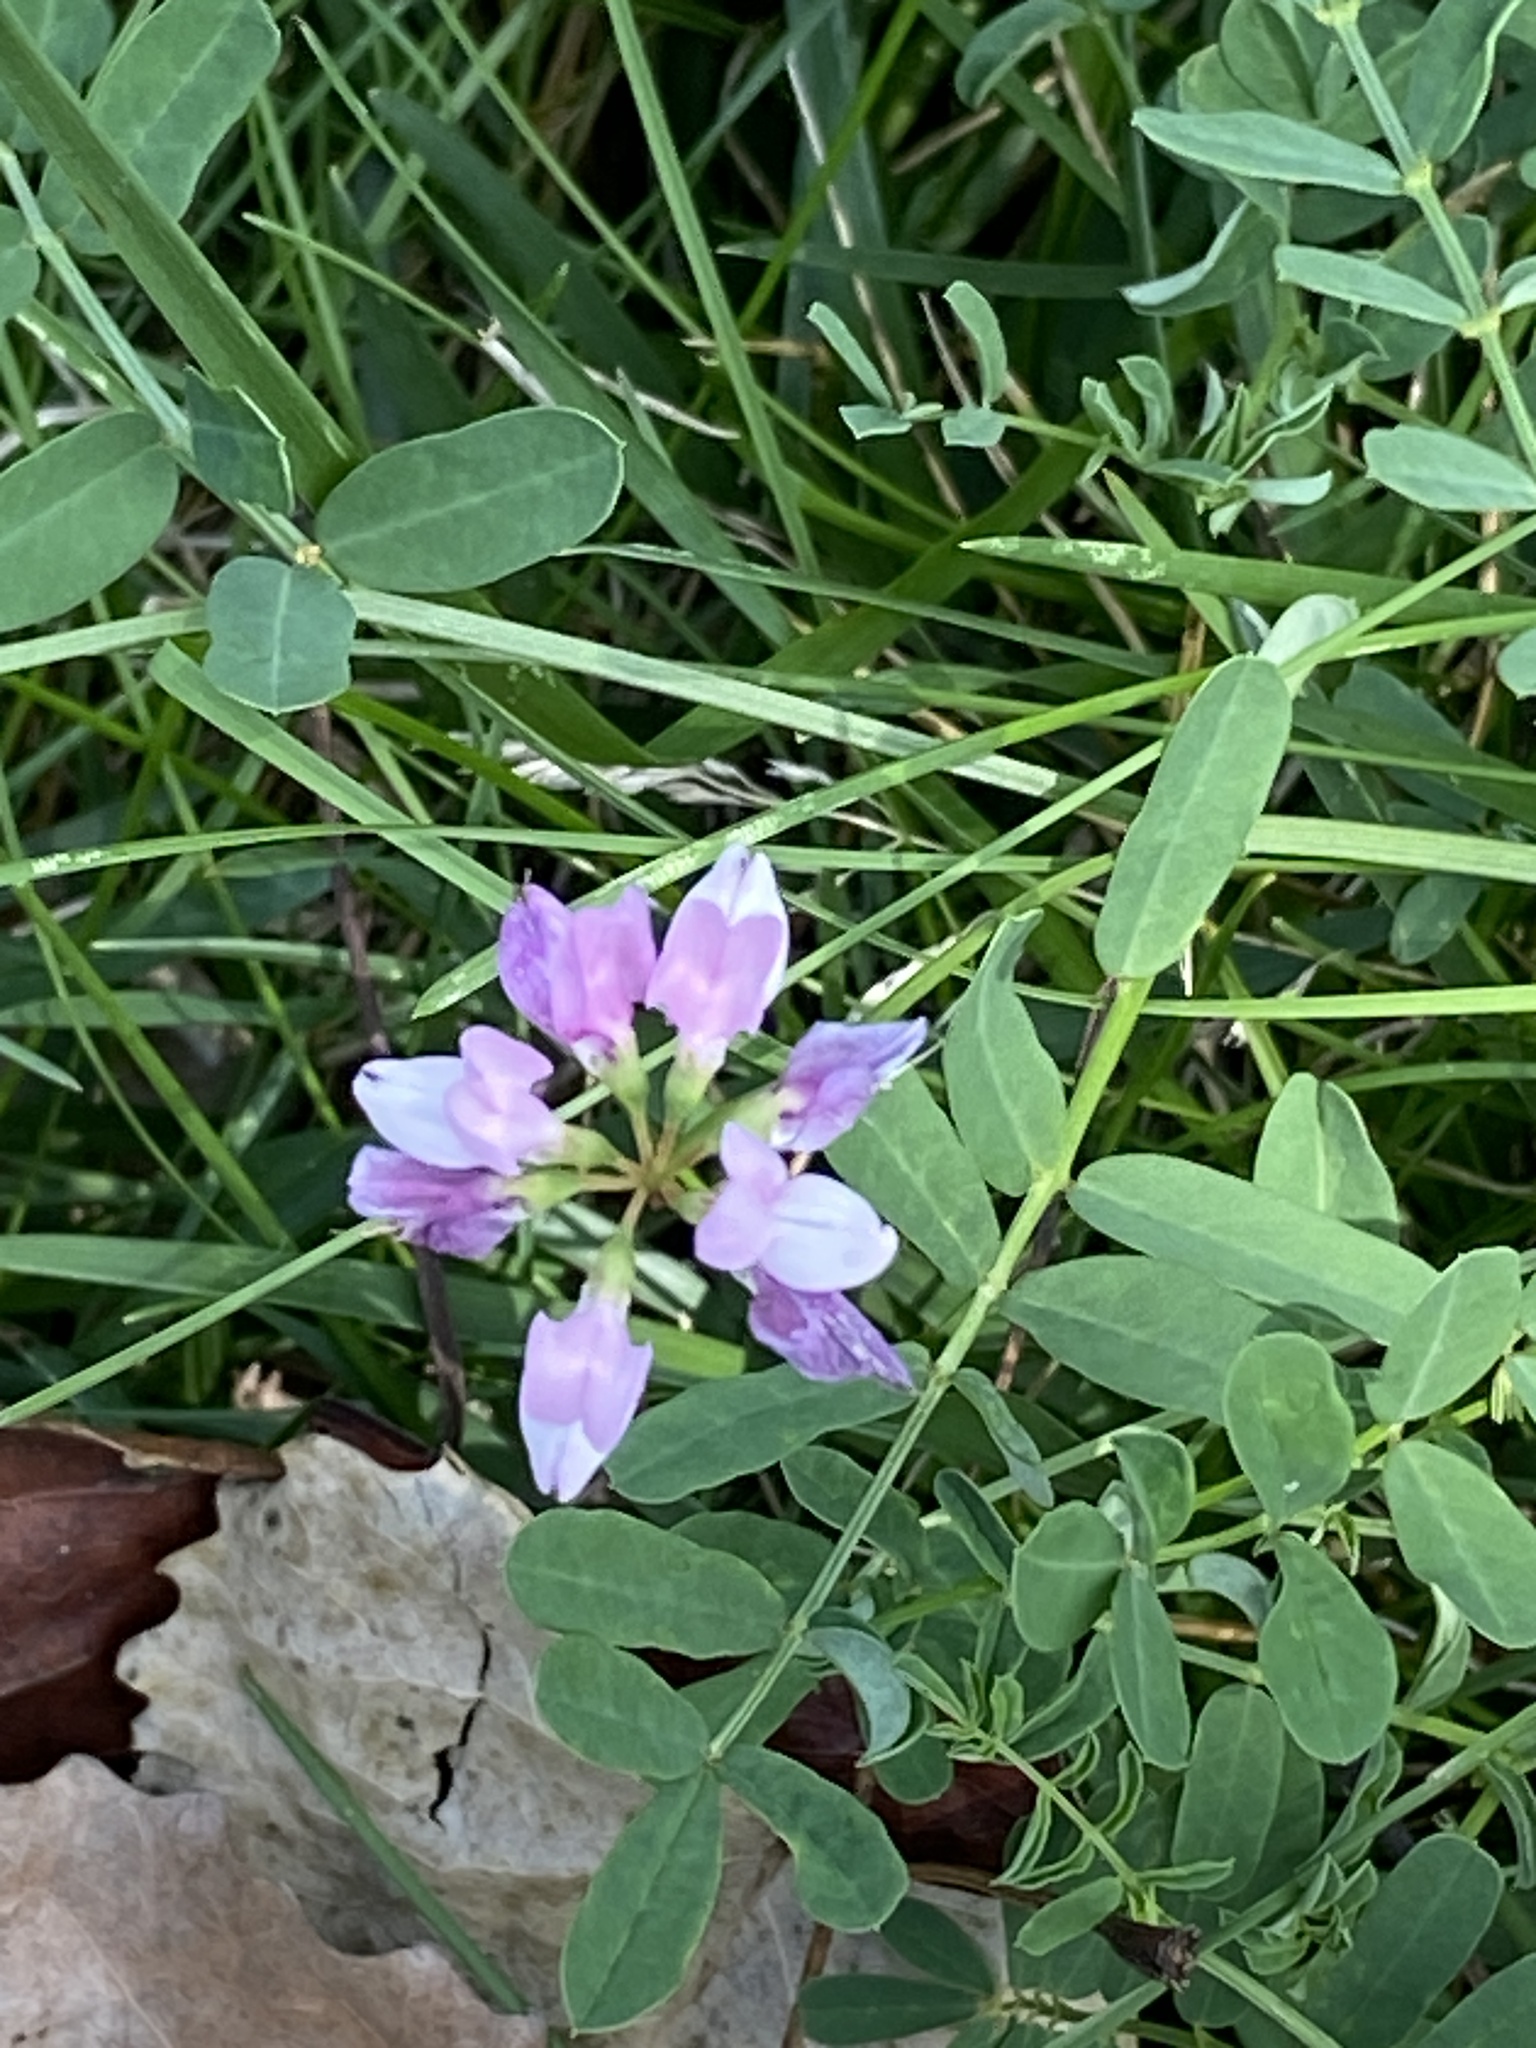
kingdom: Plantae
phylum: Tracheophyta
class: Magnoliopsida
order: Fabales
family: Fabaceae
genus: Coronilla
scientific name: Coronilla varia
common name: Crownvetch
